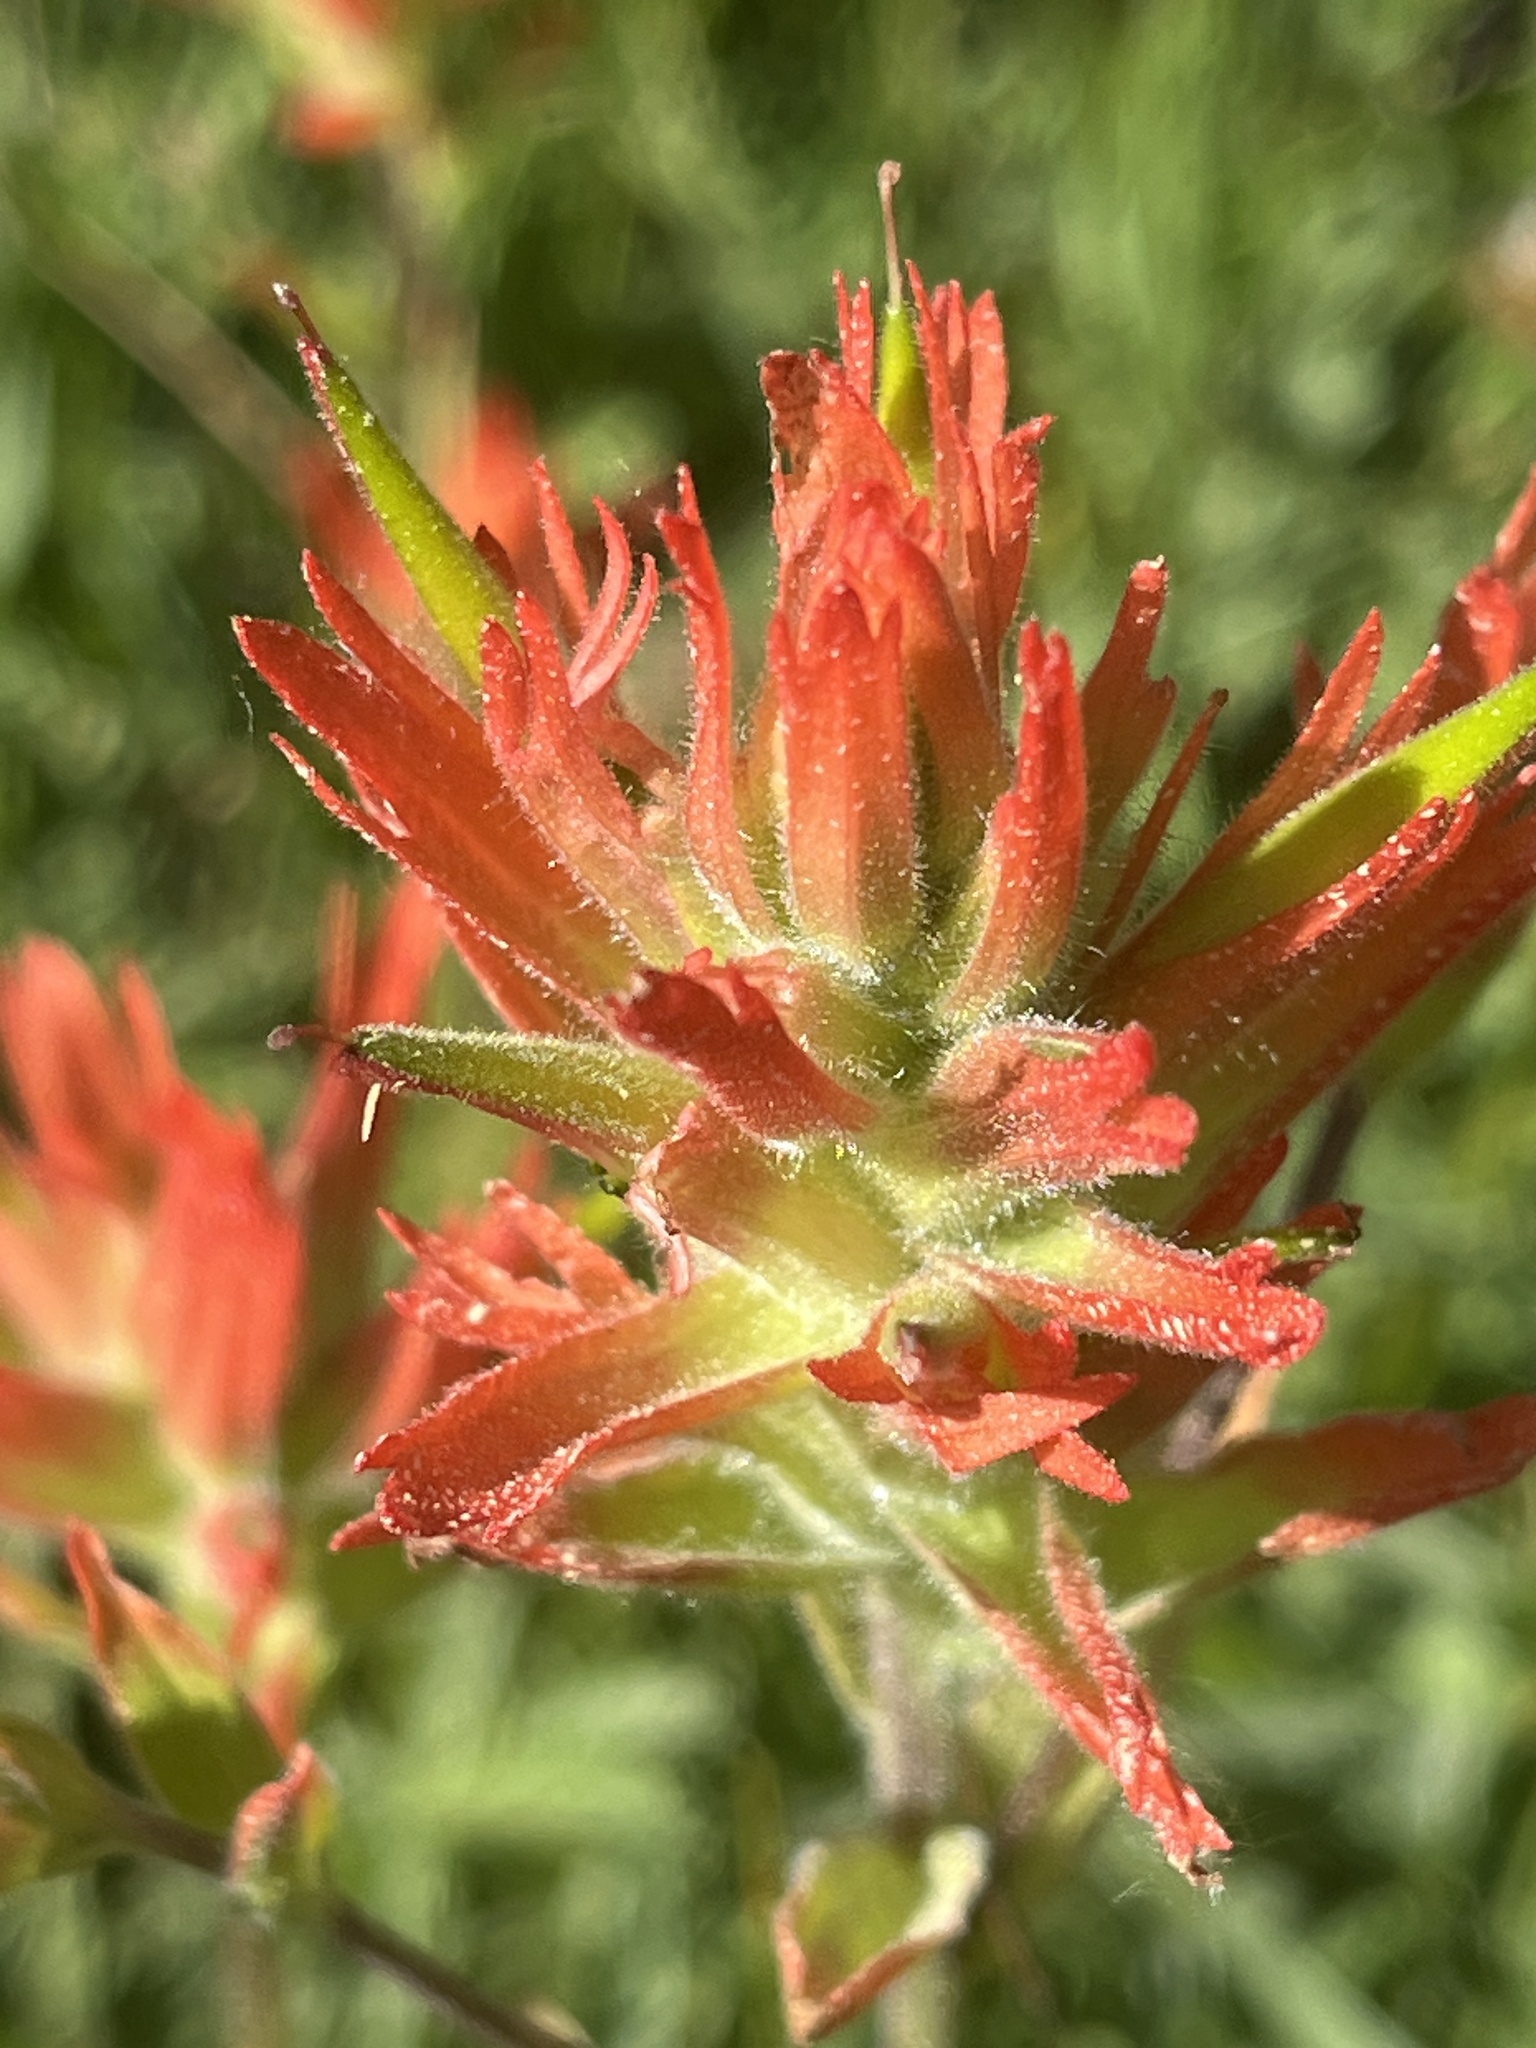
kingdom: Plantae
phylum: Tracheophyta
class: Magnoliopsida
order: Lamiales
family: Orobanchaceae
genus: Castilleja
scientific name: Castilleja miniata
